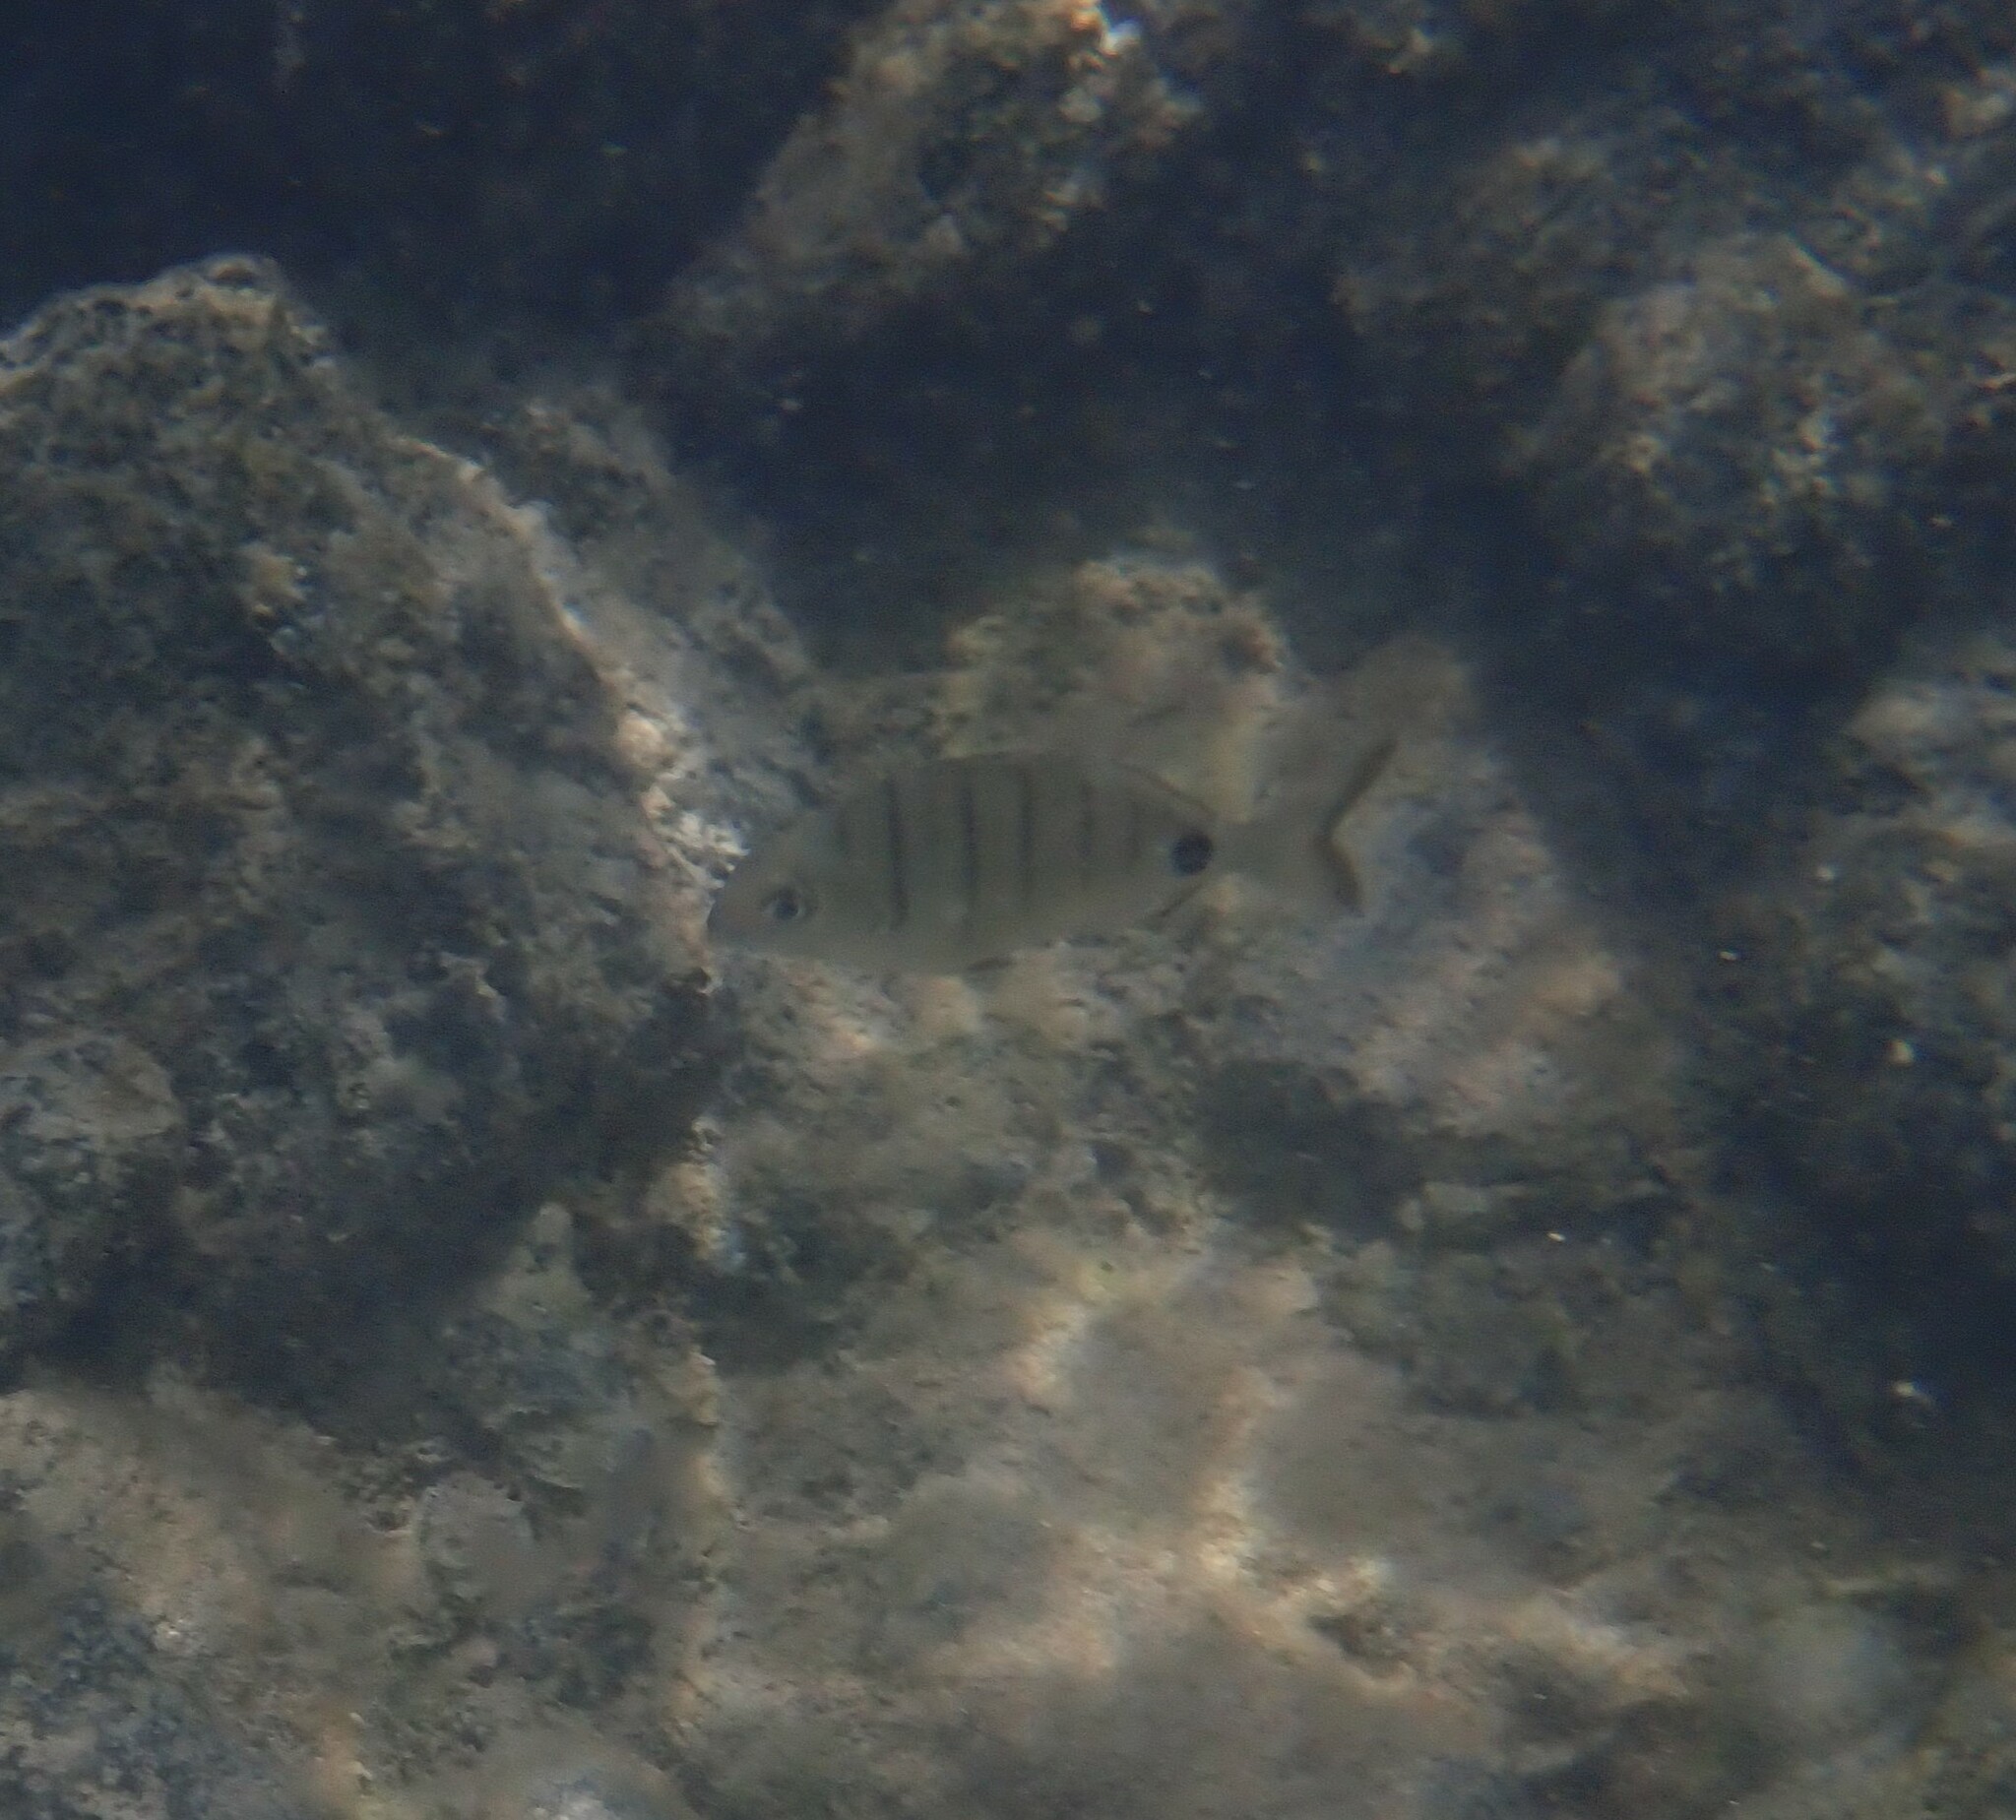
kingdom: Animalia
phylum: Chordata
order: Perciformes
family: Sparidae
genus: Diplodus
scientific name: Diplodus cadenati
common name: Moroccan white seabream
